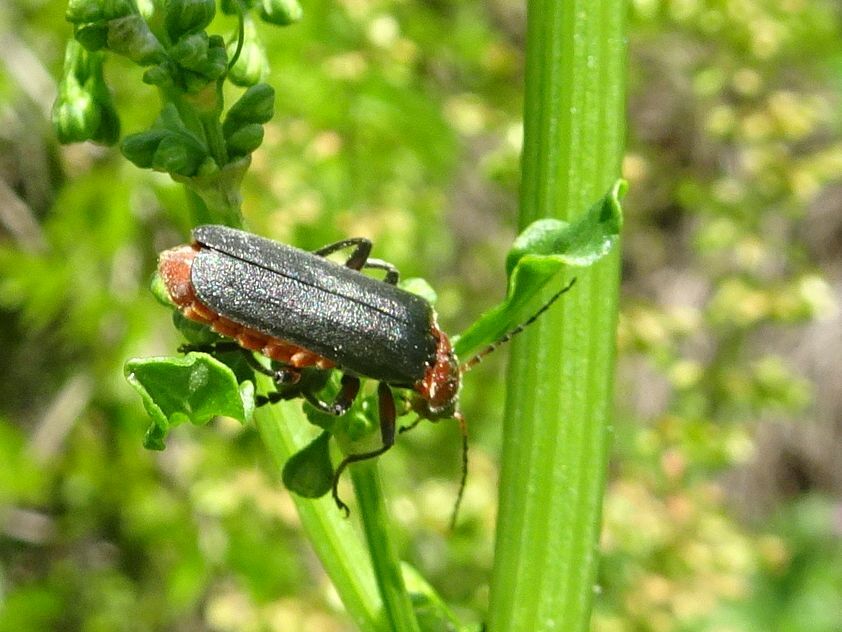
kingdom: Animalia
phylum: Arthropoda
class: Insecta
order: Coleoptera
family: Cantharidae
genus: Cantharis
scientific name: Cantharis rustica
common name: Soldier beetle
